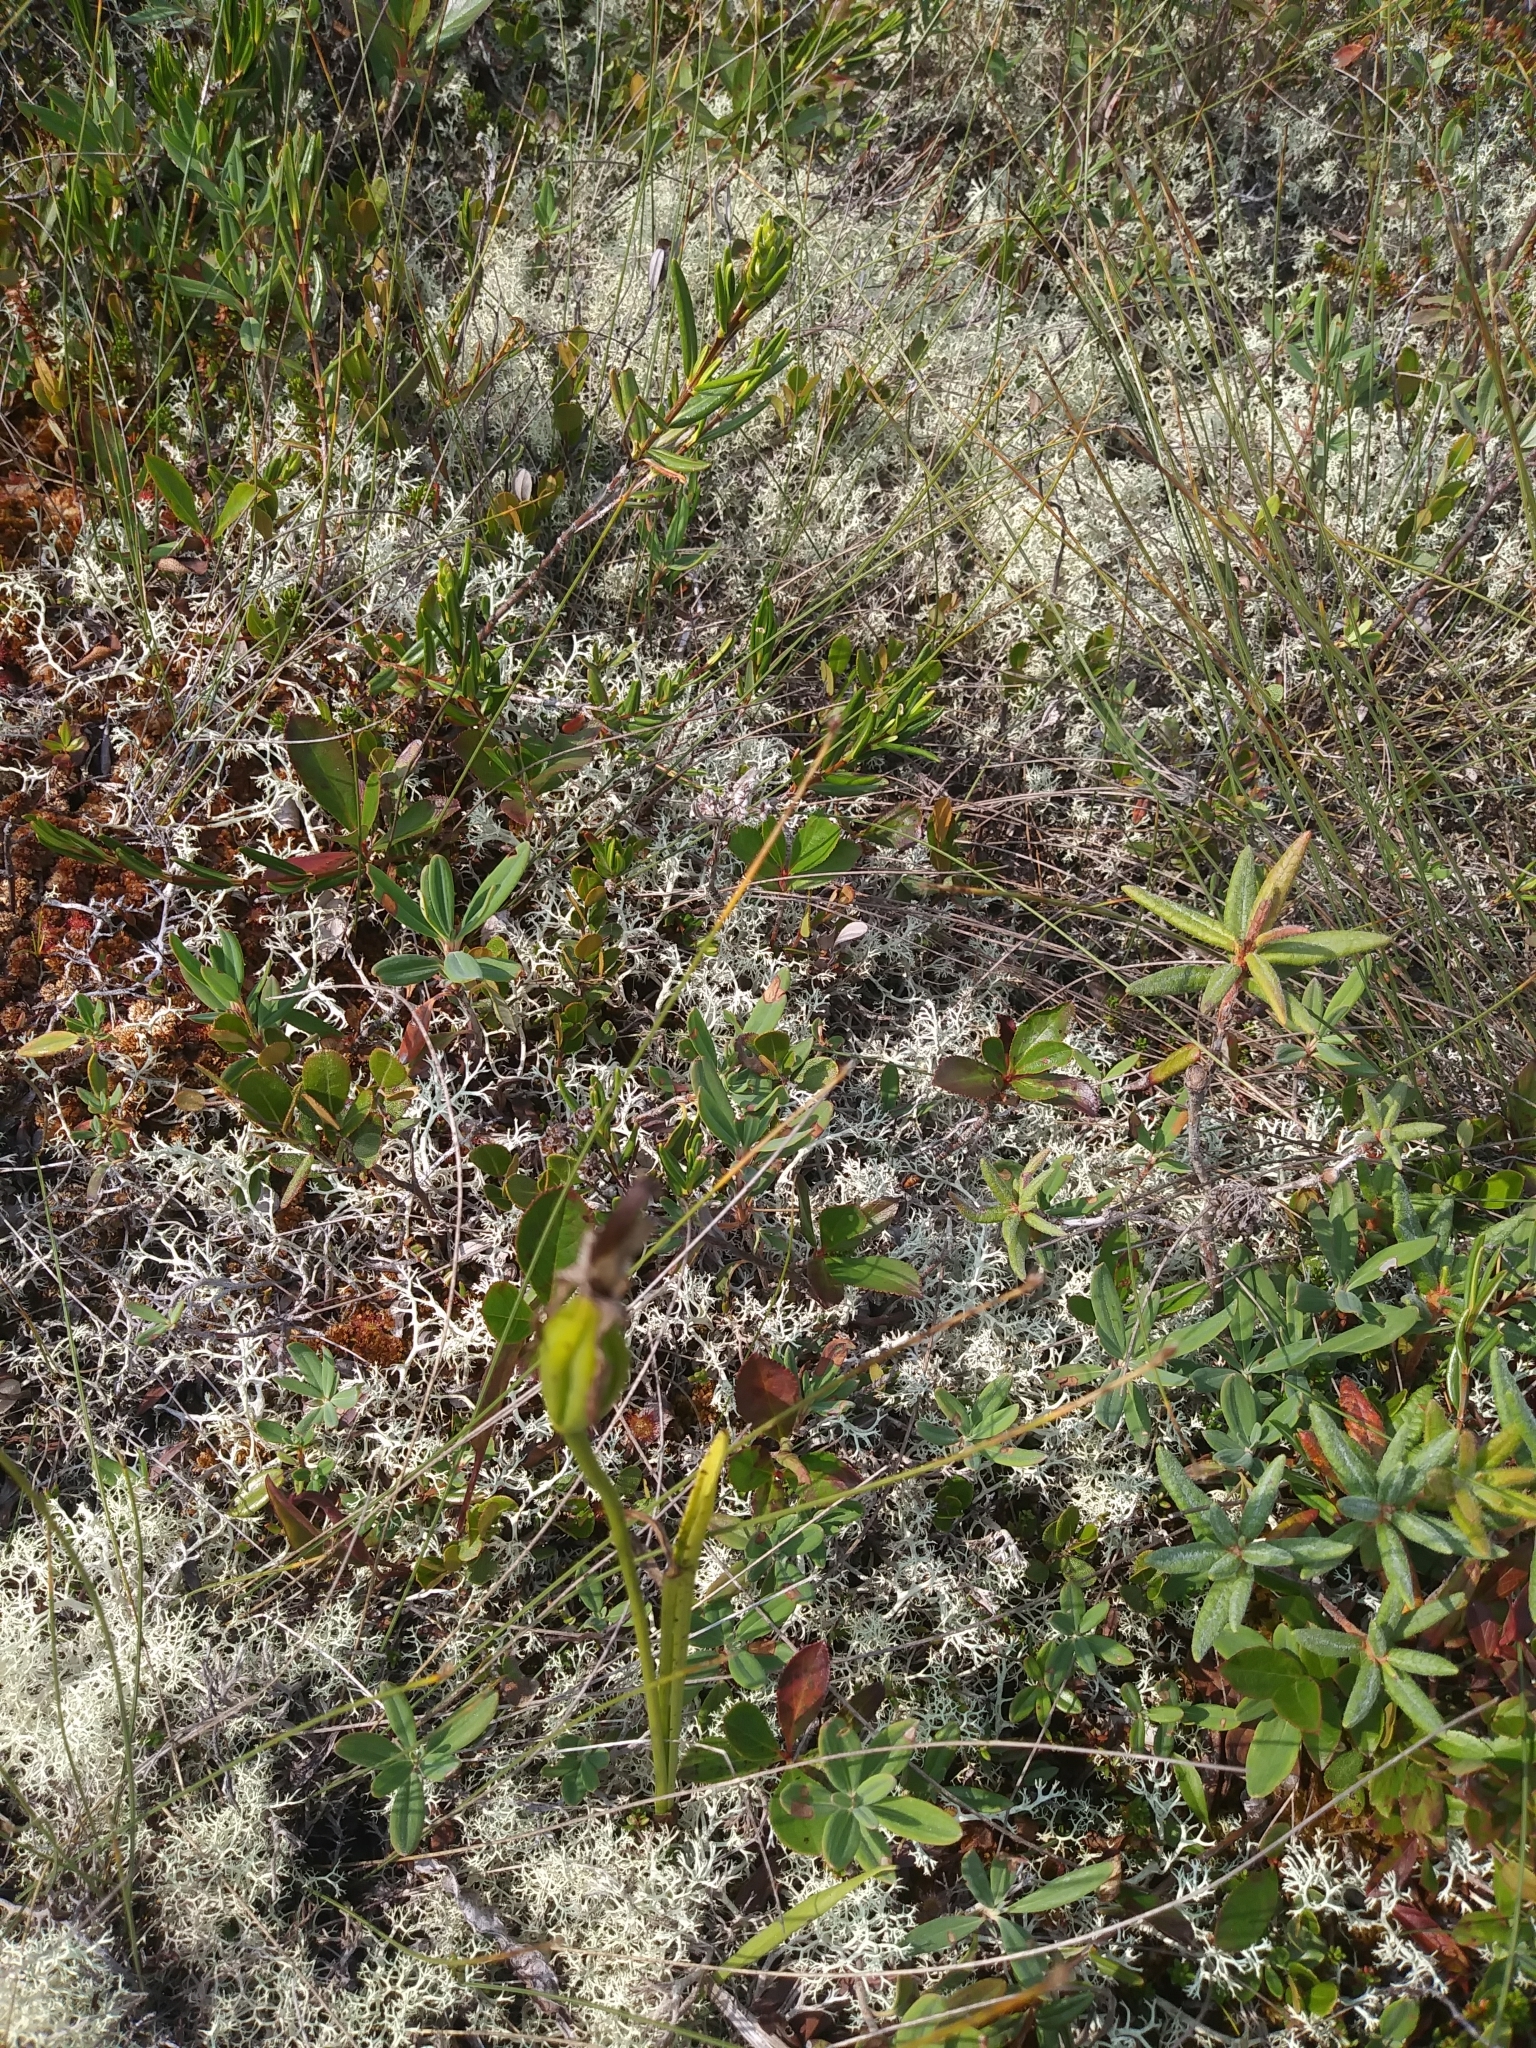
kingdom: Plantae
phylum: Tracheophyta
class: Liliopsida
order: Asparagales
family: Orchidaceae
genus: Arethusa
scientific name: Arethusa bulbosa
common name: Arethusa
